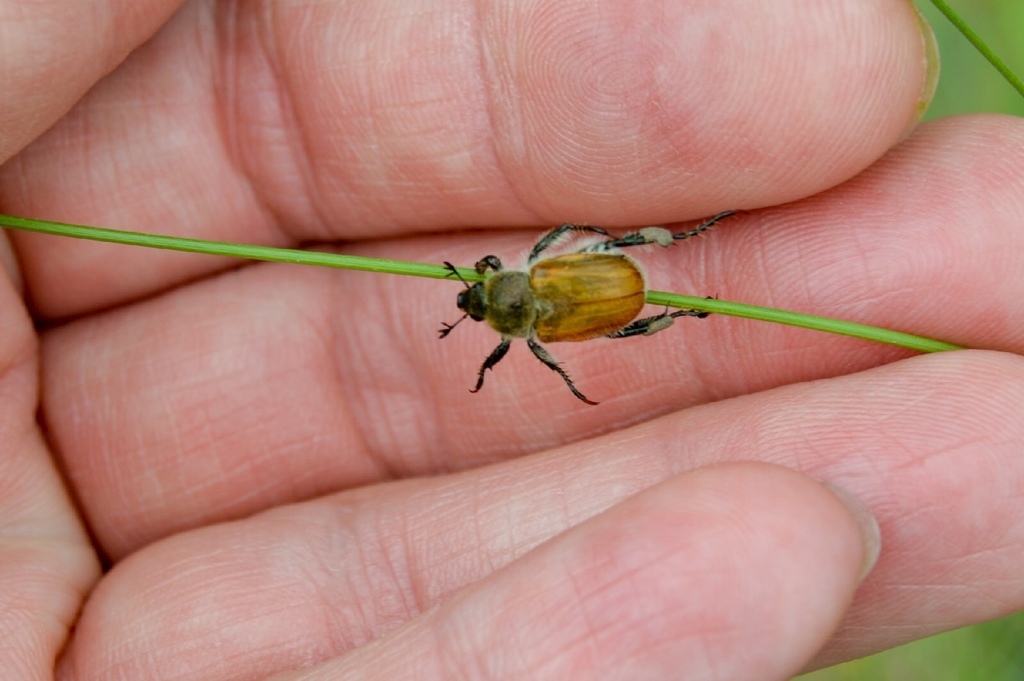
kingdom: Animalia
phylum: Arthropoda
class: Insecta
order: Coleoptera
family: Scarabaeidae
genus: Chaetopteroplia
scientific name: Chaetopteroplia segetum
